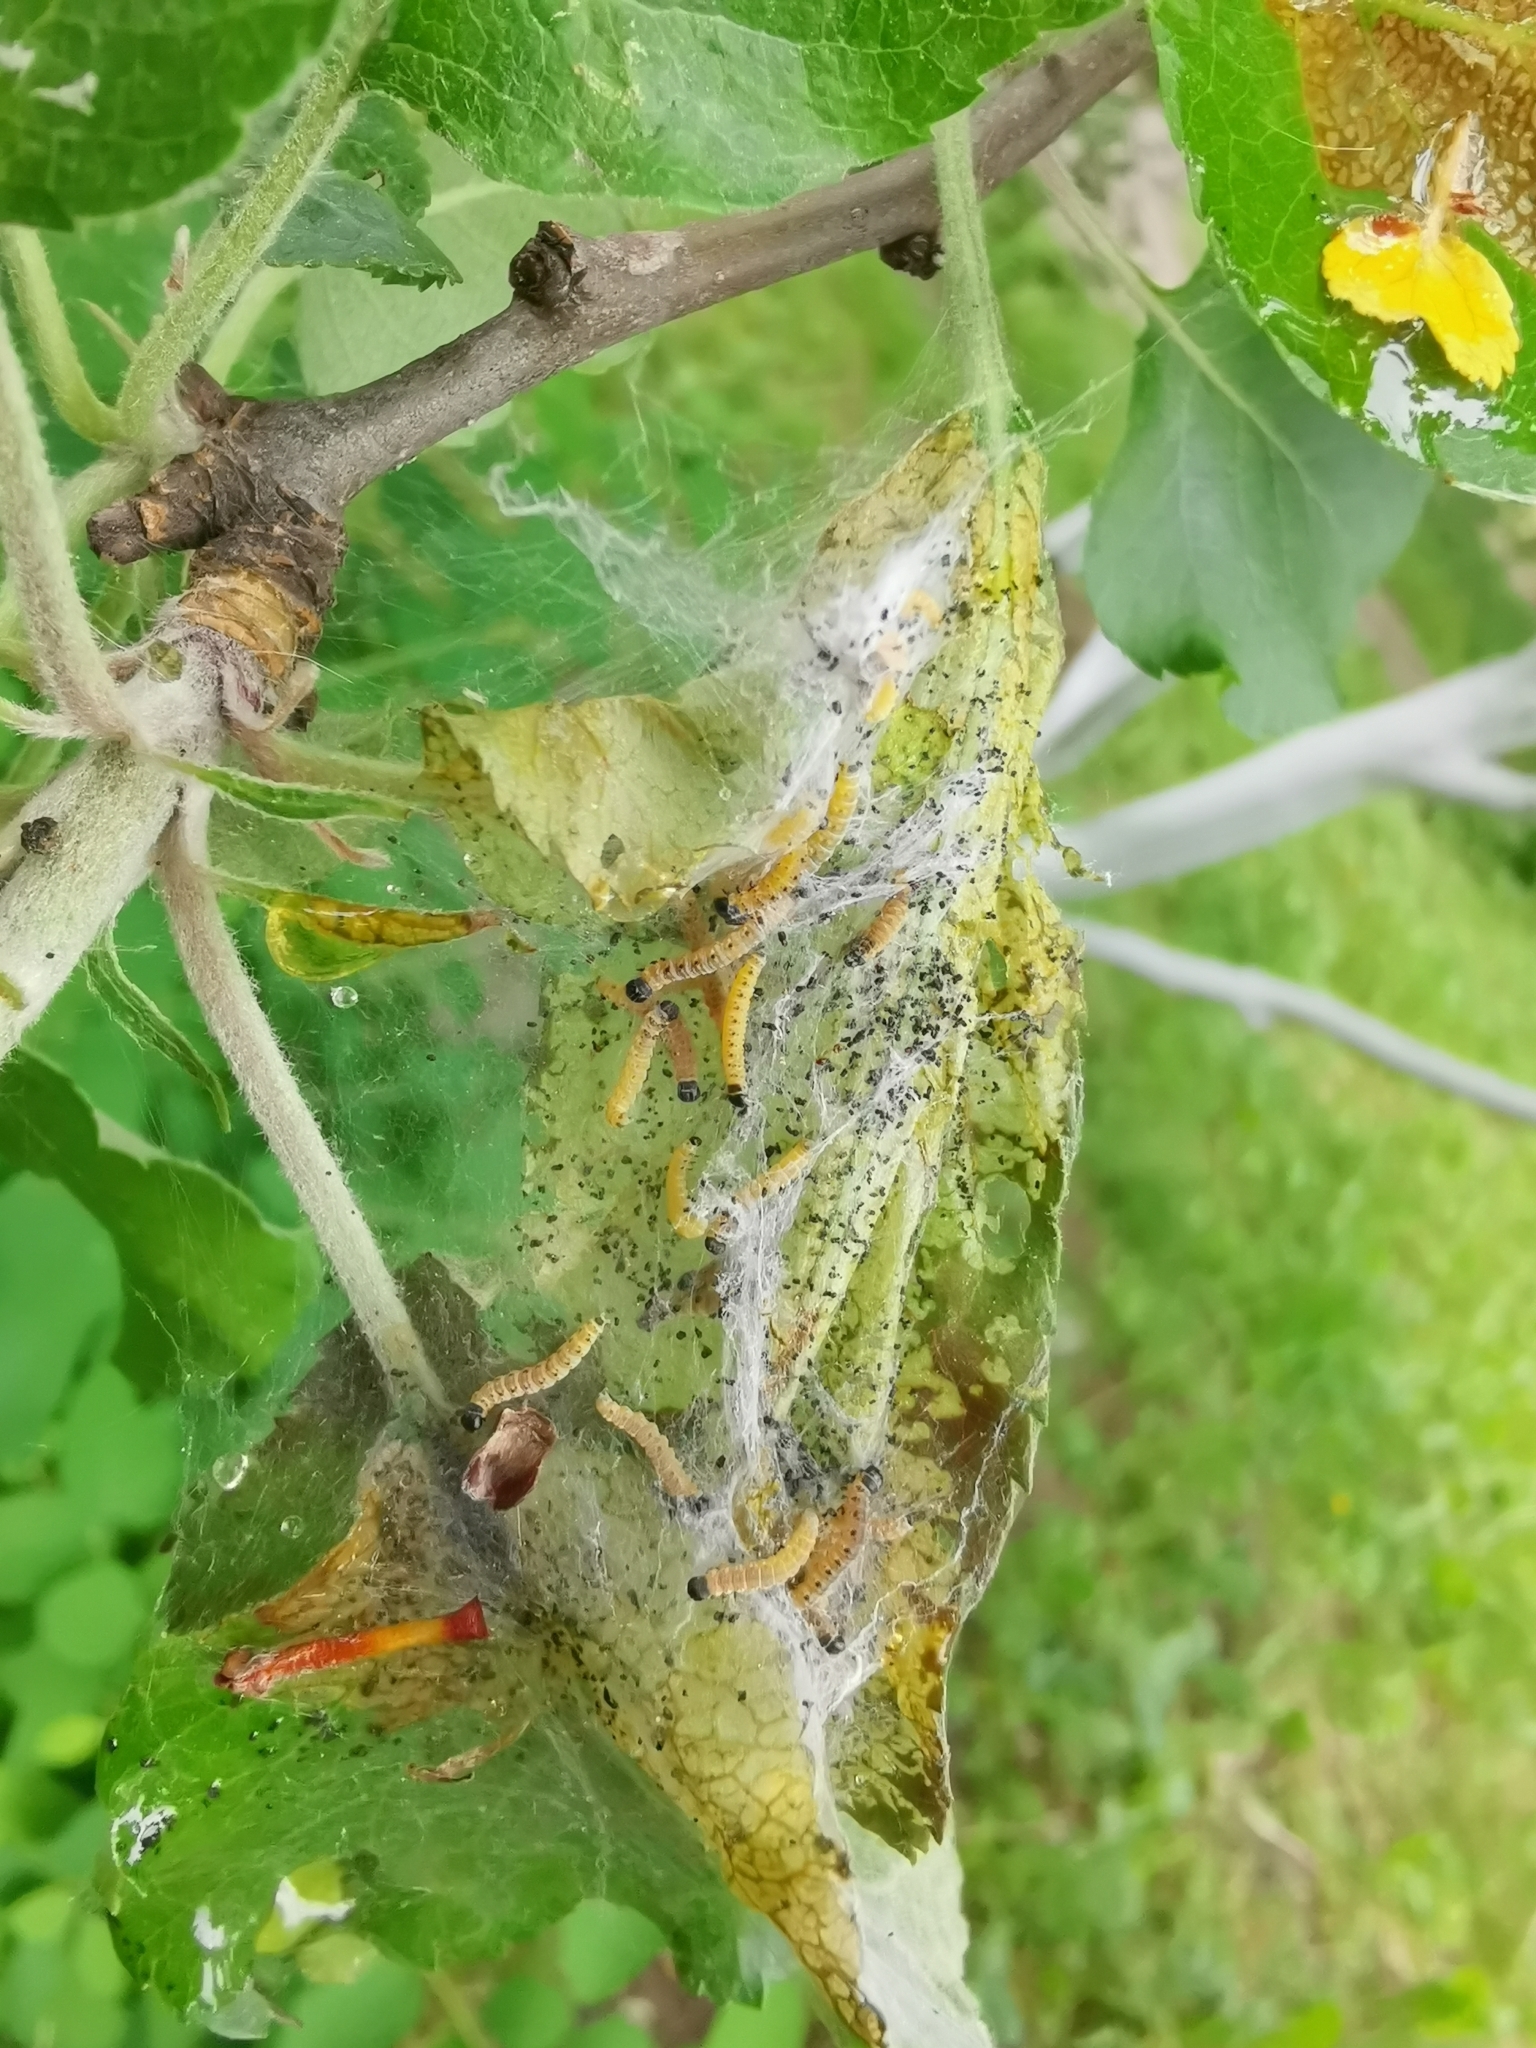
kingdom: Animalia
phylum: Arthropoda
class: Insecta
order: Lepidoptera
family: Yponomeutidae
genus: Yponomeuta
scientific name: Yponomeuta padella
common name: Orchard ermine
